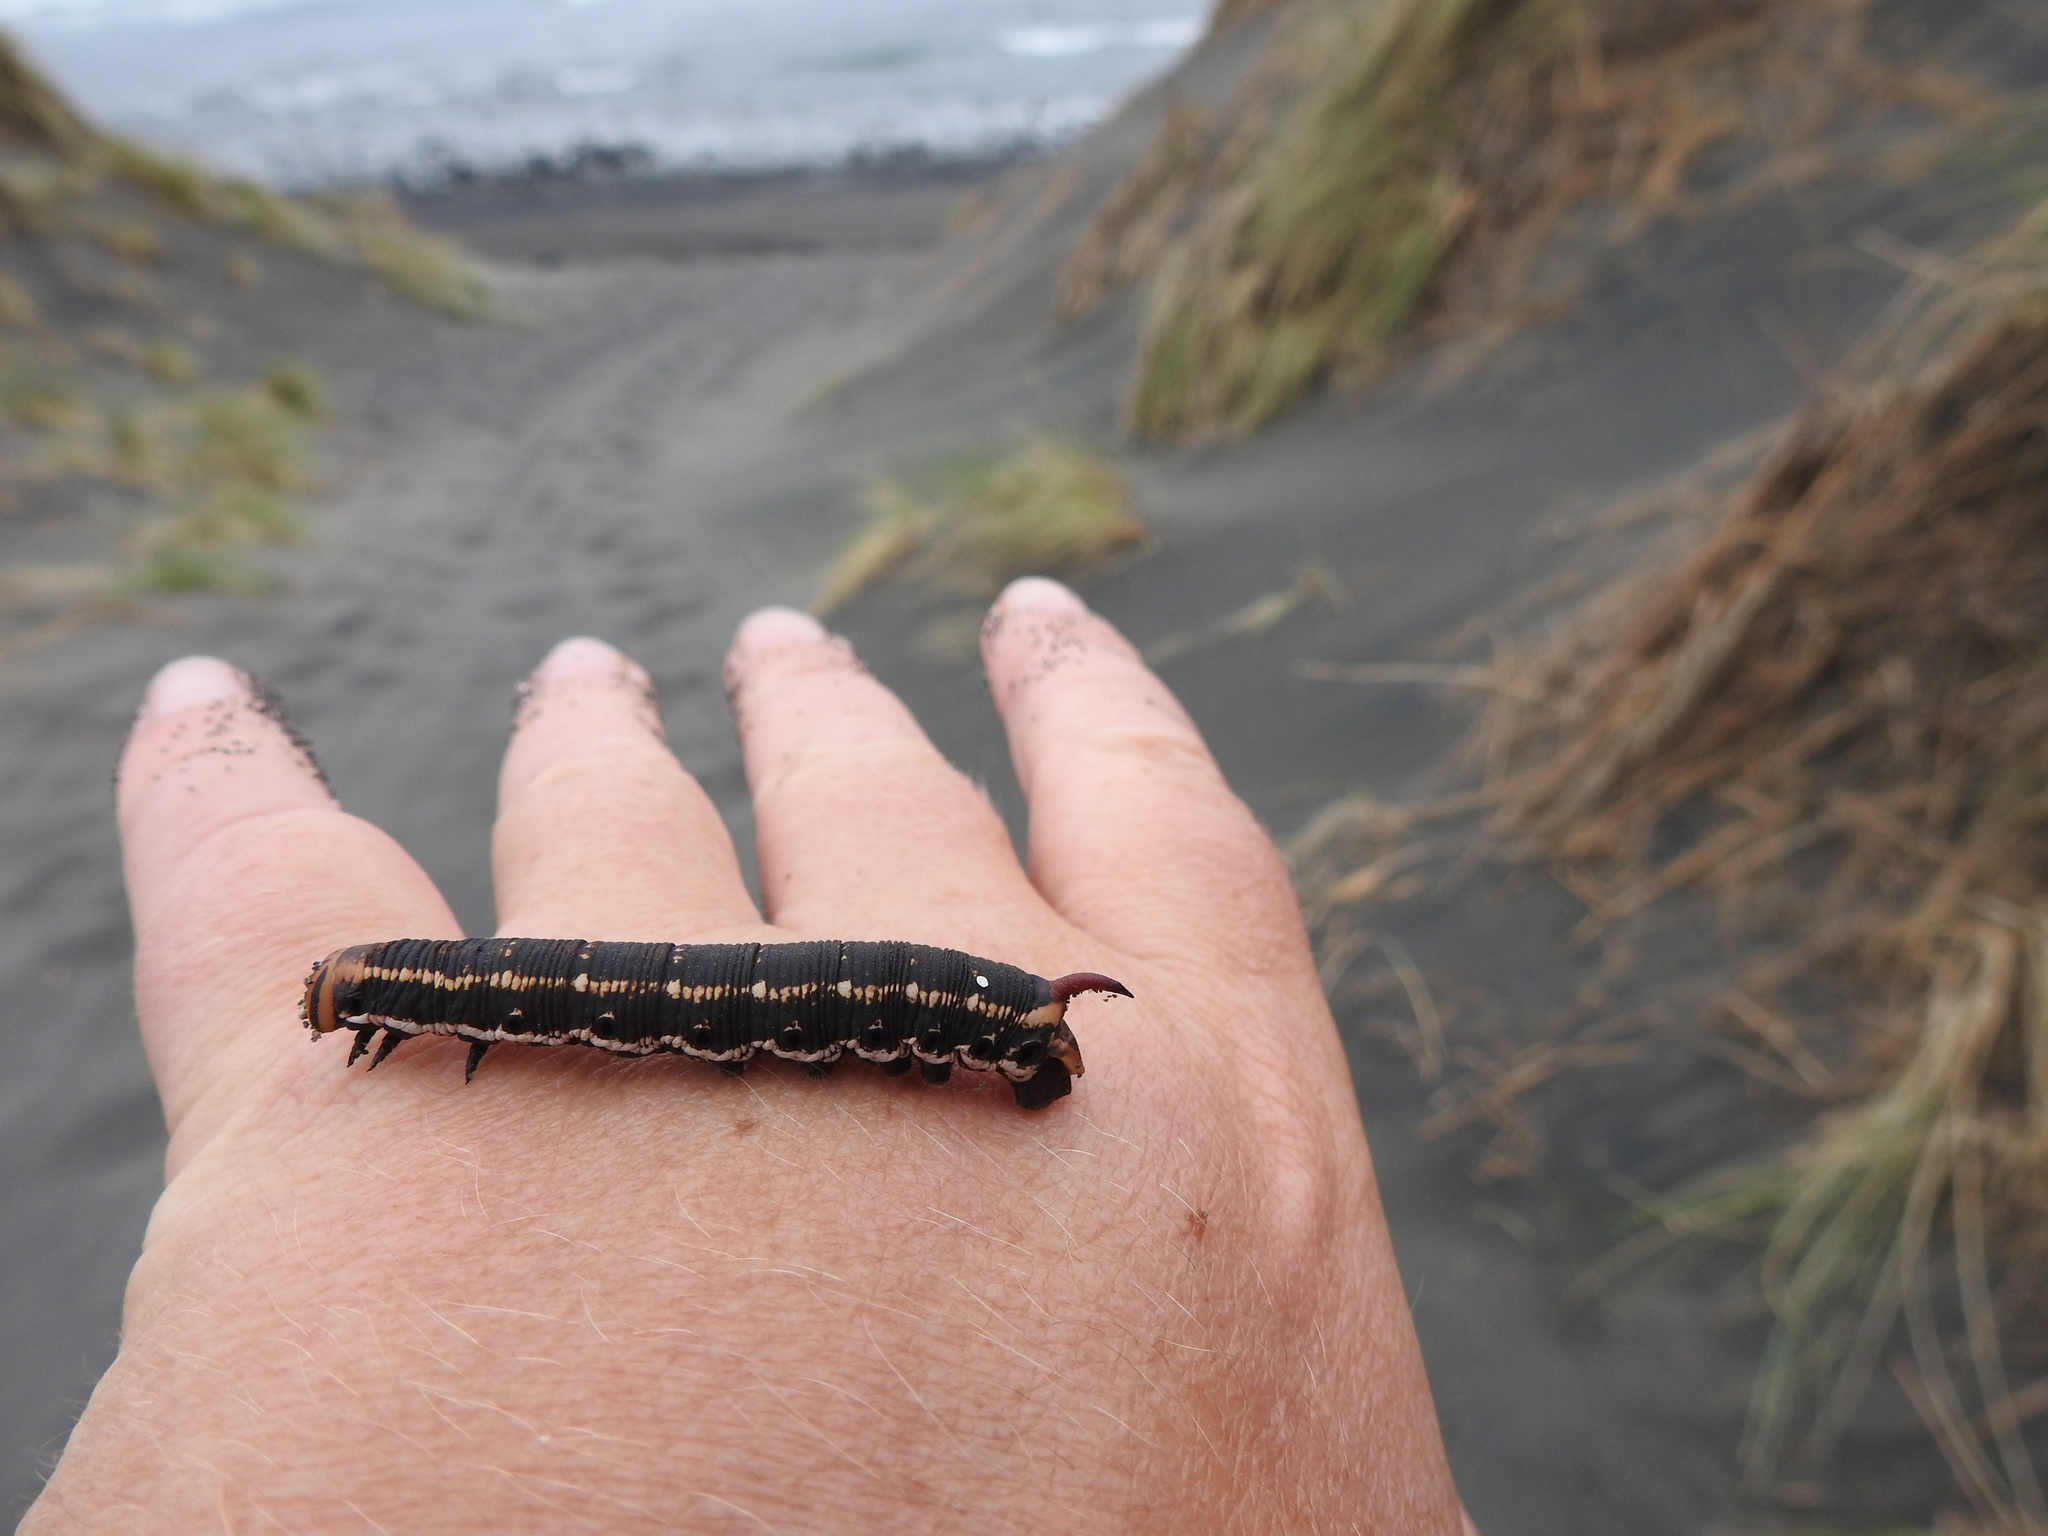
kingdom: Animalia
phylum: Arthropoda
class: Insecta
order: Lepidoptera
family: Sphingidae
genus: Agrius
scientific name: Agrius convolvuli
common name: Convolvulus hawkmoth
